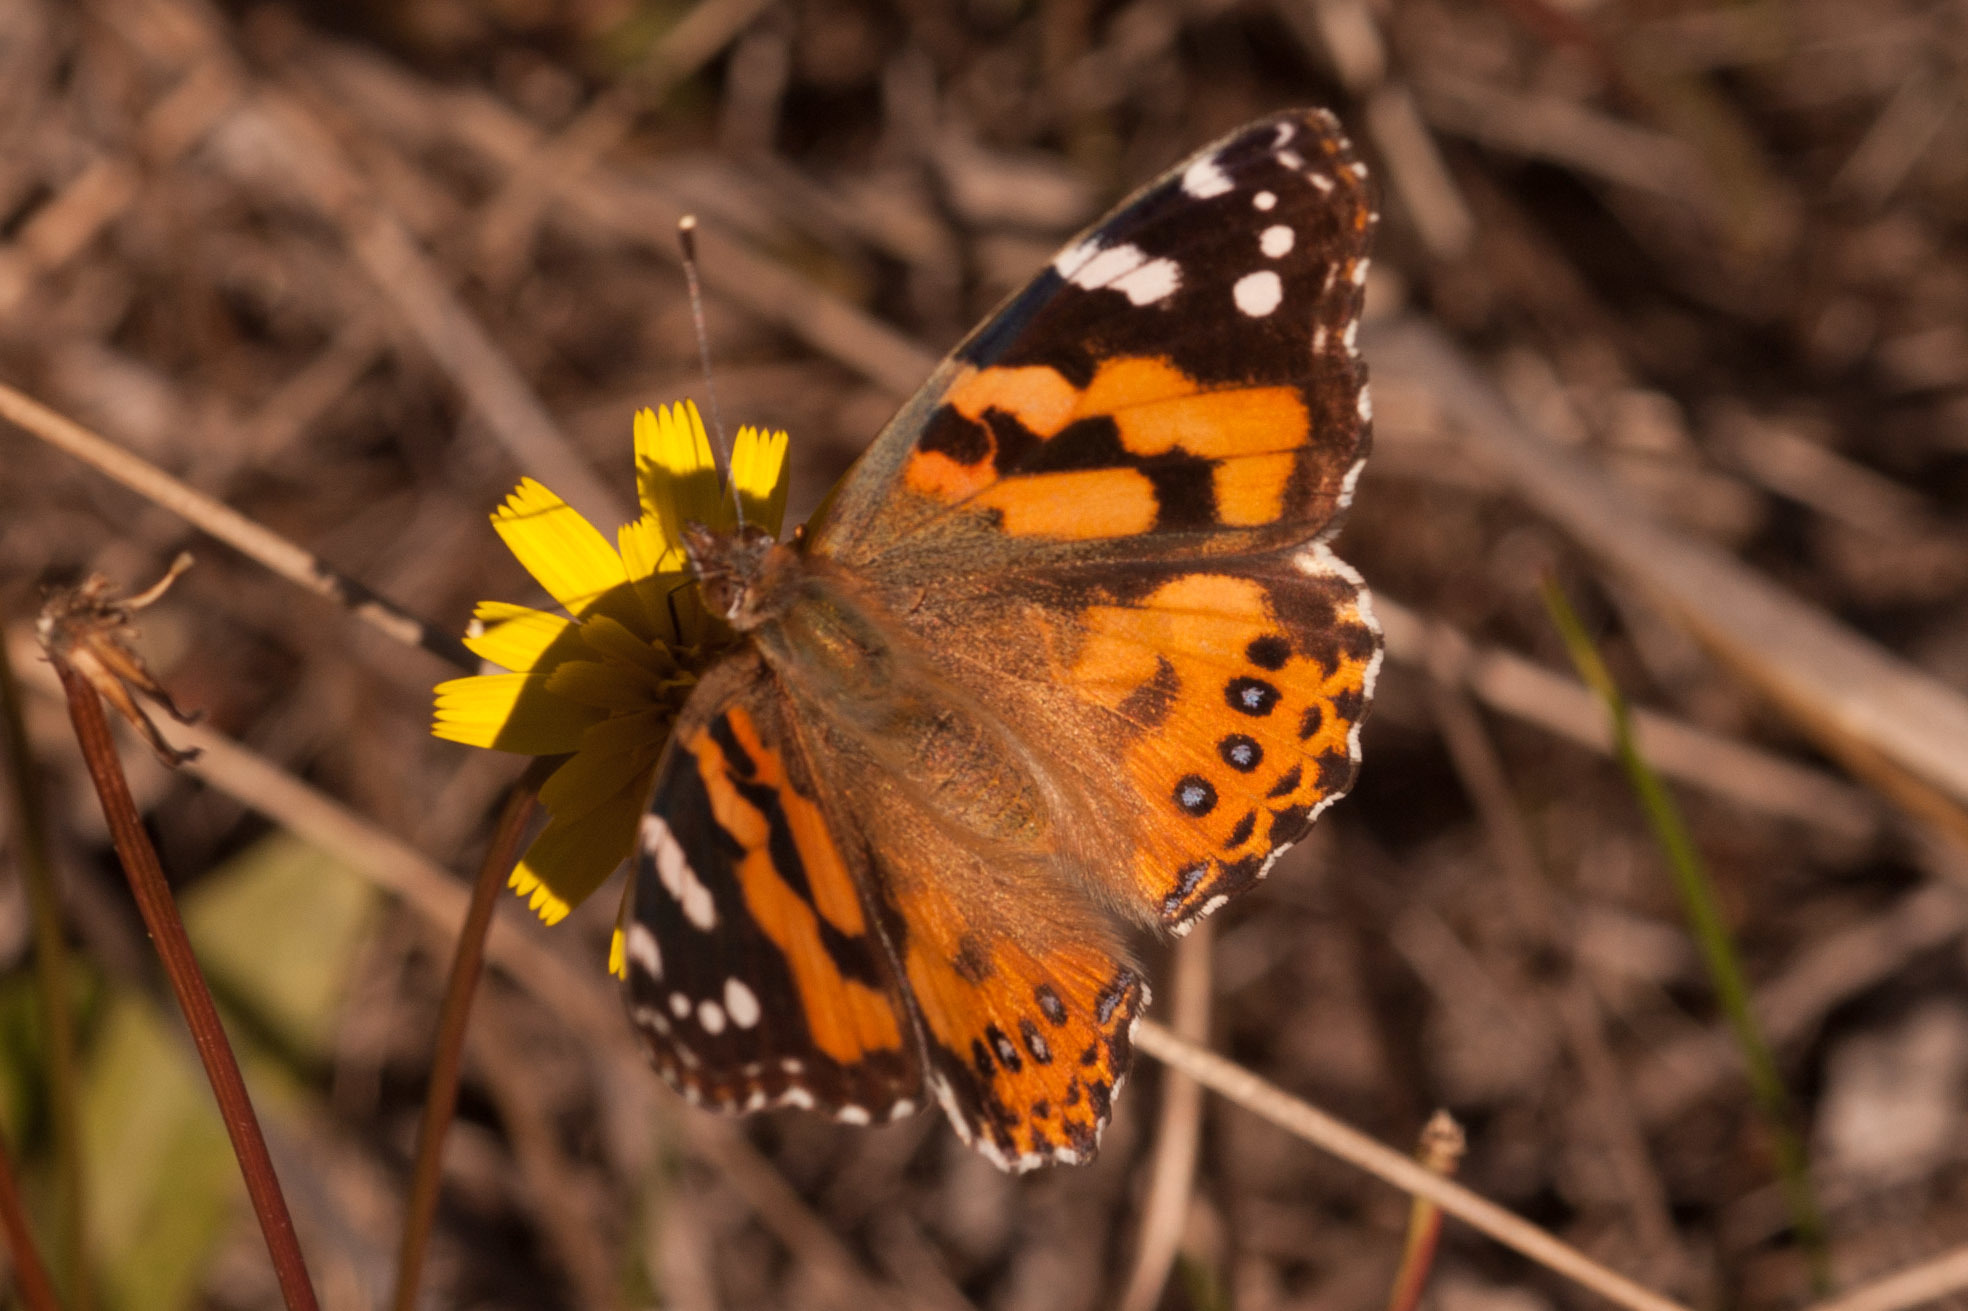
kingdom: Animalia
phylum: Arthropoda
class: Insecta
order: Lepidoptera
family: Nymphalidae
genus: Vanessa
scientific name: Vanessa kershawi
